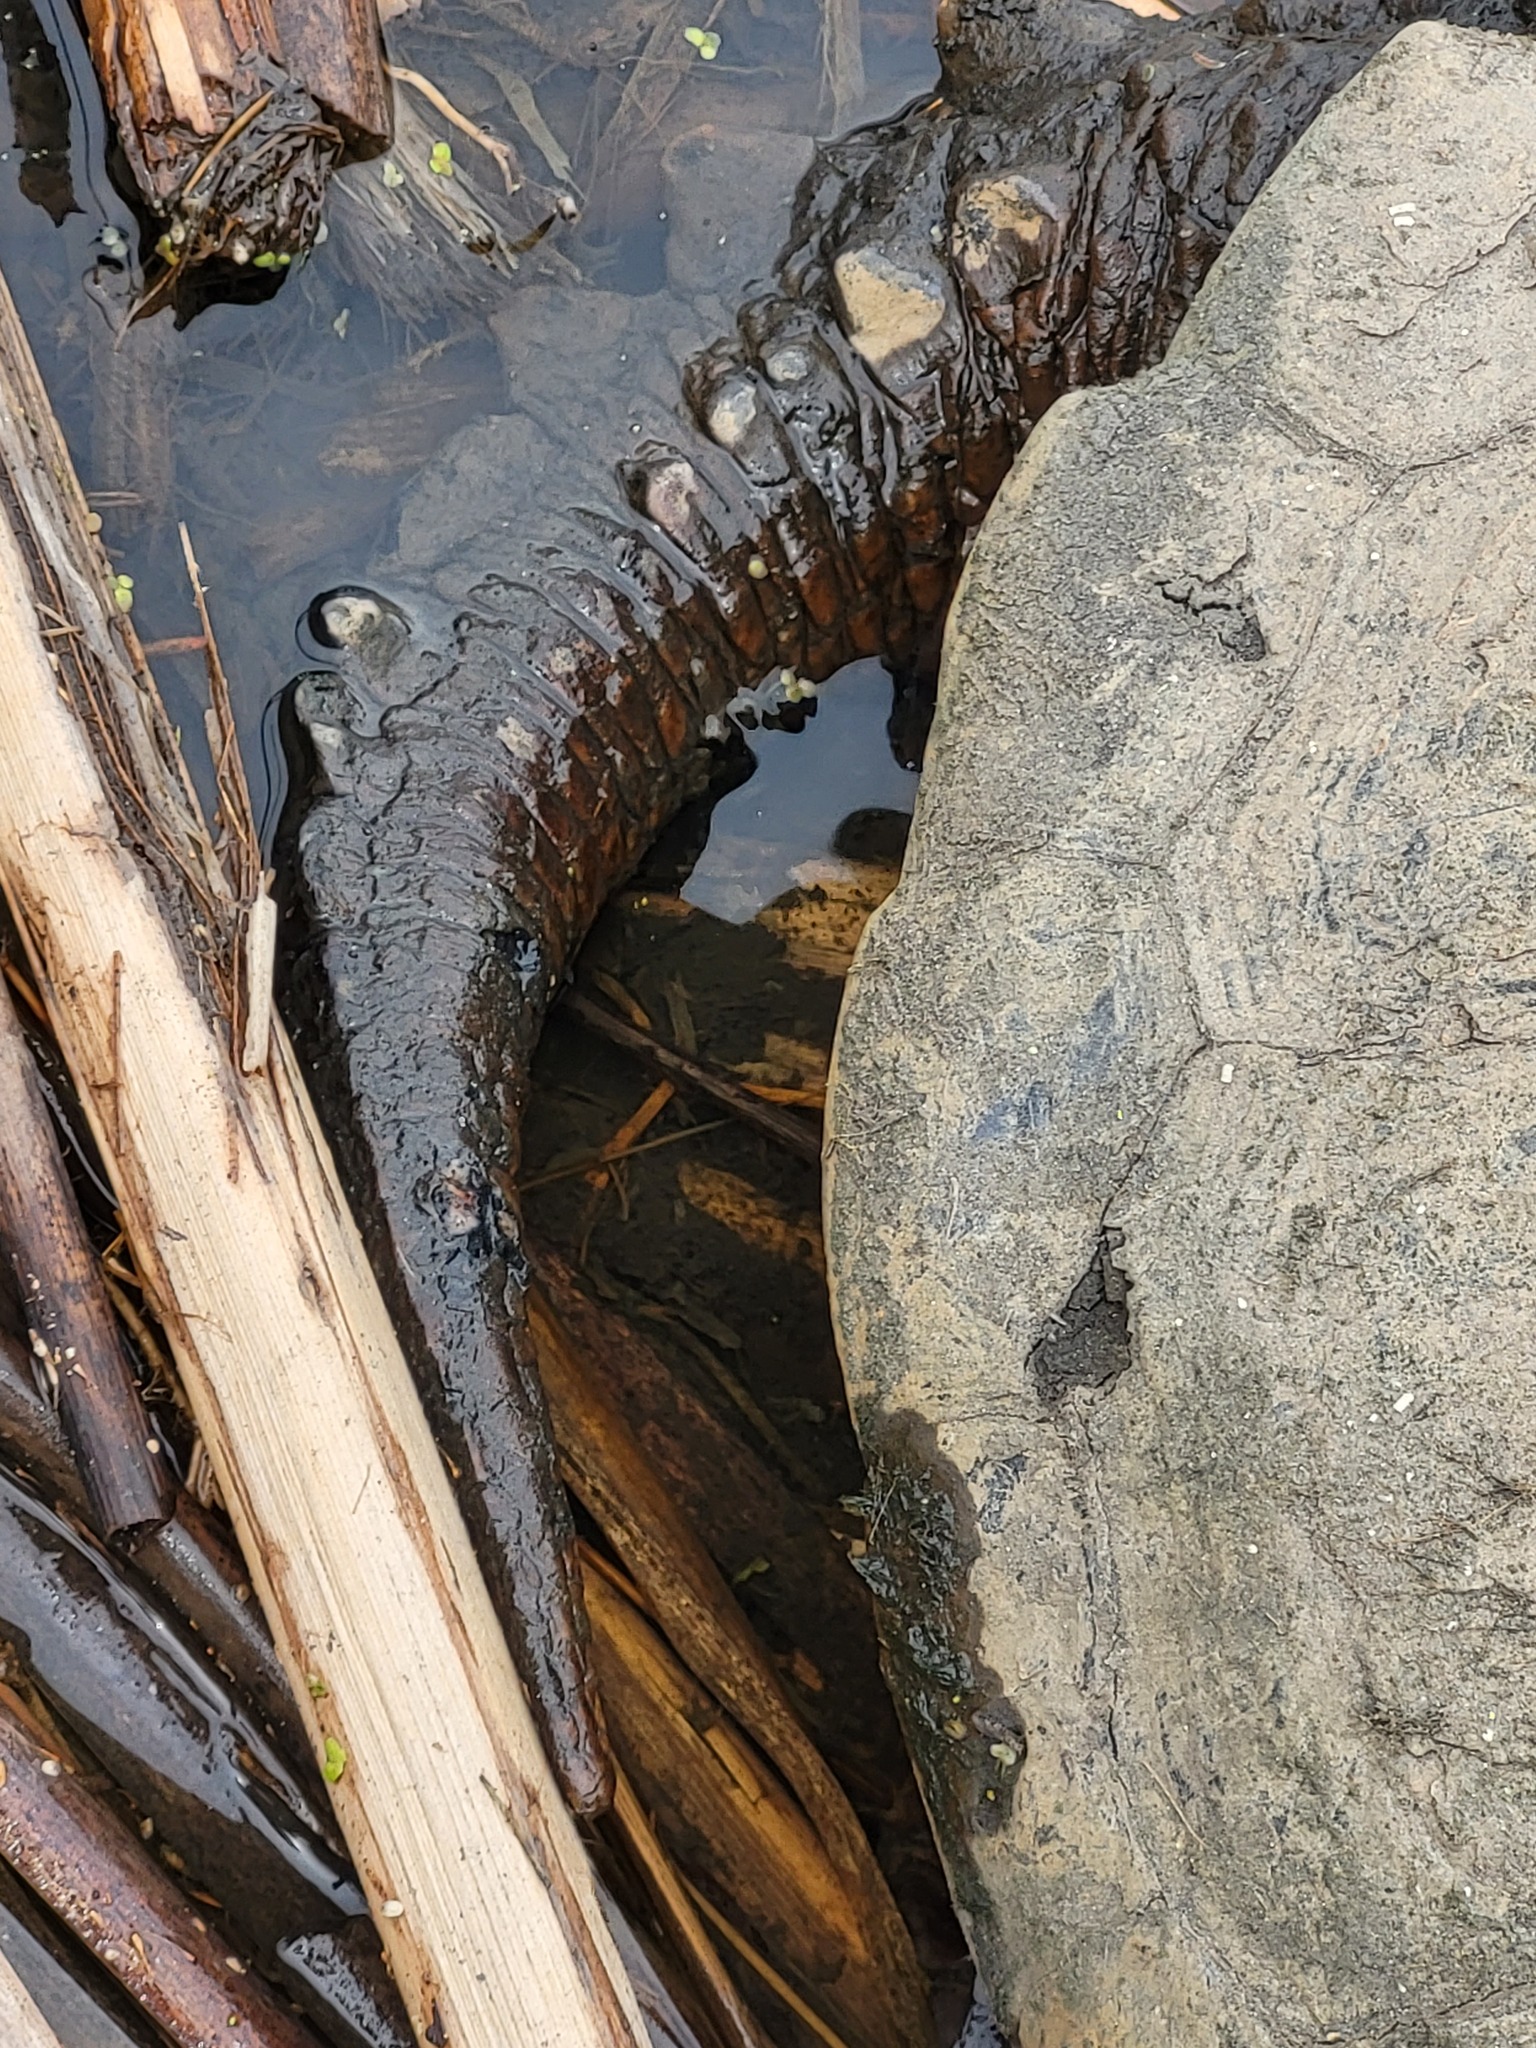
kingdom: Animalia
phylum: Chordata
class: Testudines
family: Chelydridae
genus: Chelydra
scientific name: Chelydra serpentina
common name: Common snapping turtle
